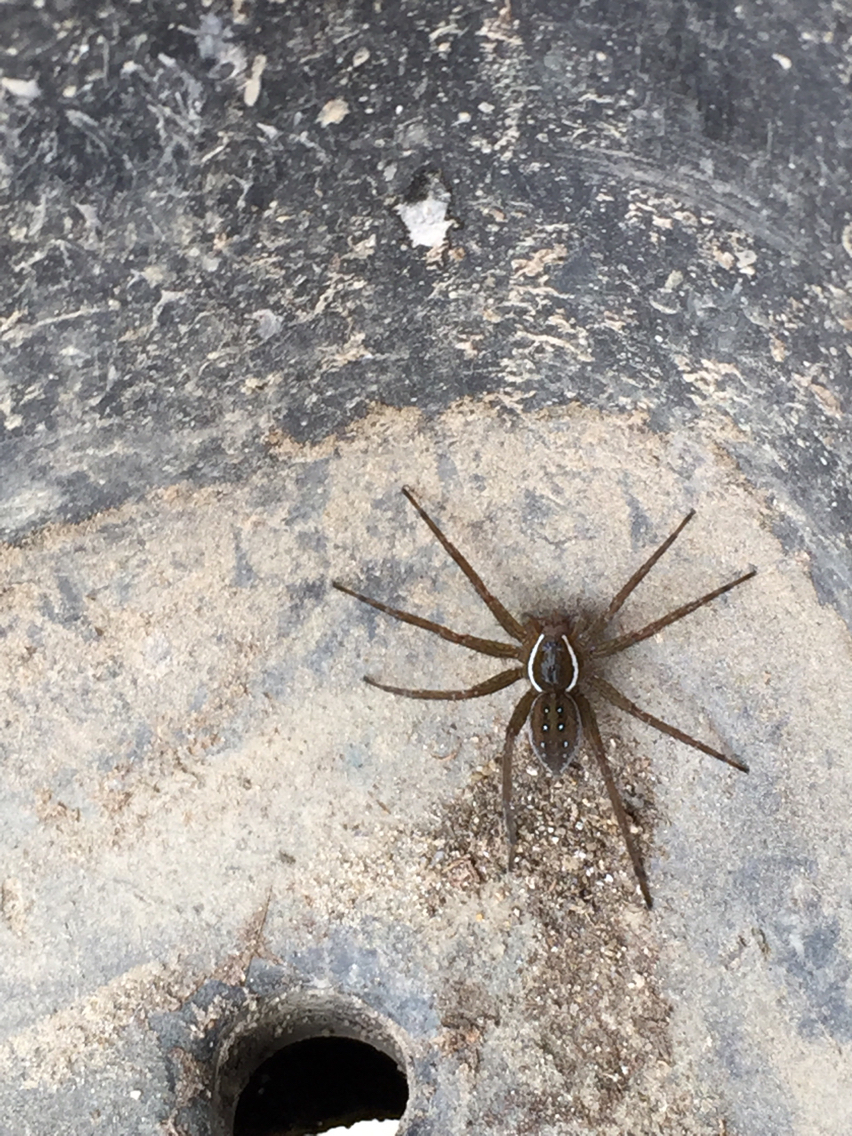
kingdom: Animalia
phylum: Arthropoda
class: Arachnida
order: Araneae
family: Pisauridae
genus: Dolomedes
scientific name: Dolomedes triton
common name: Six-spotted fishing spider
